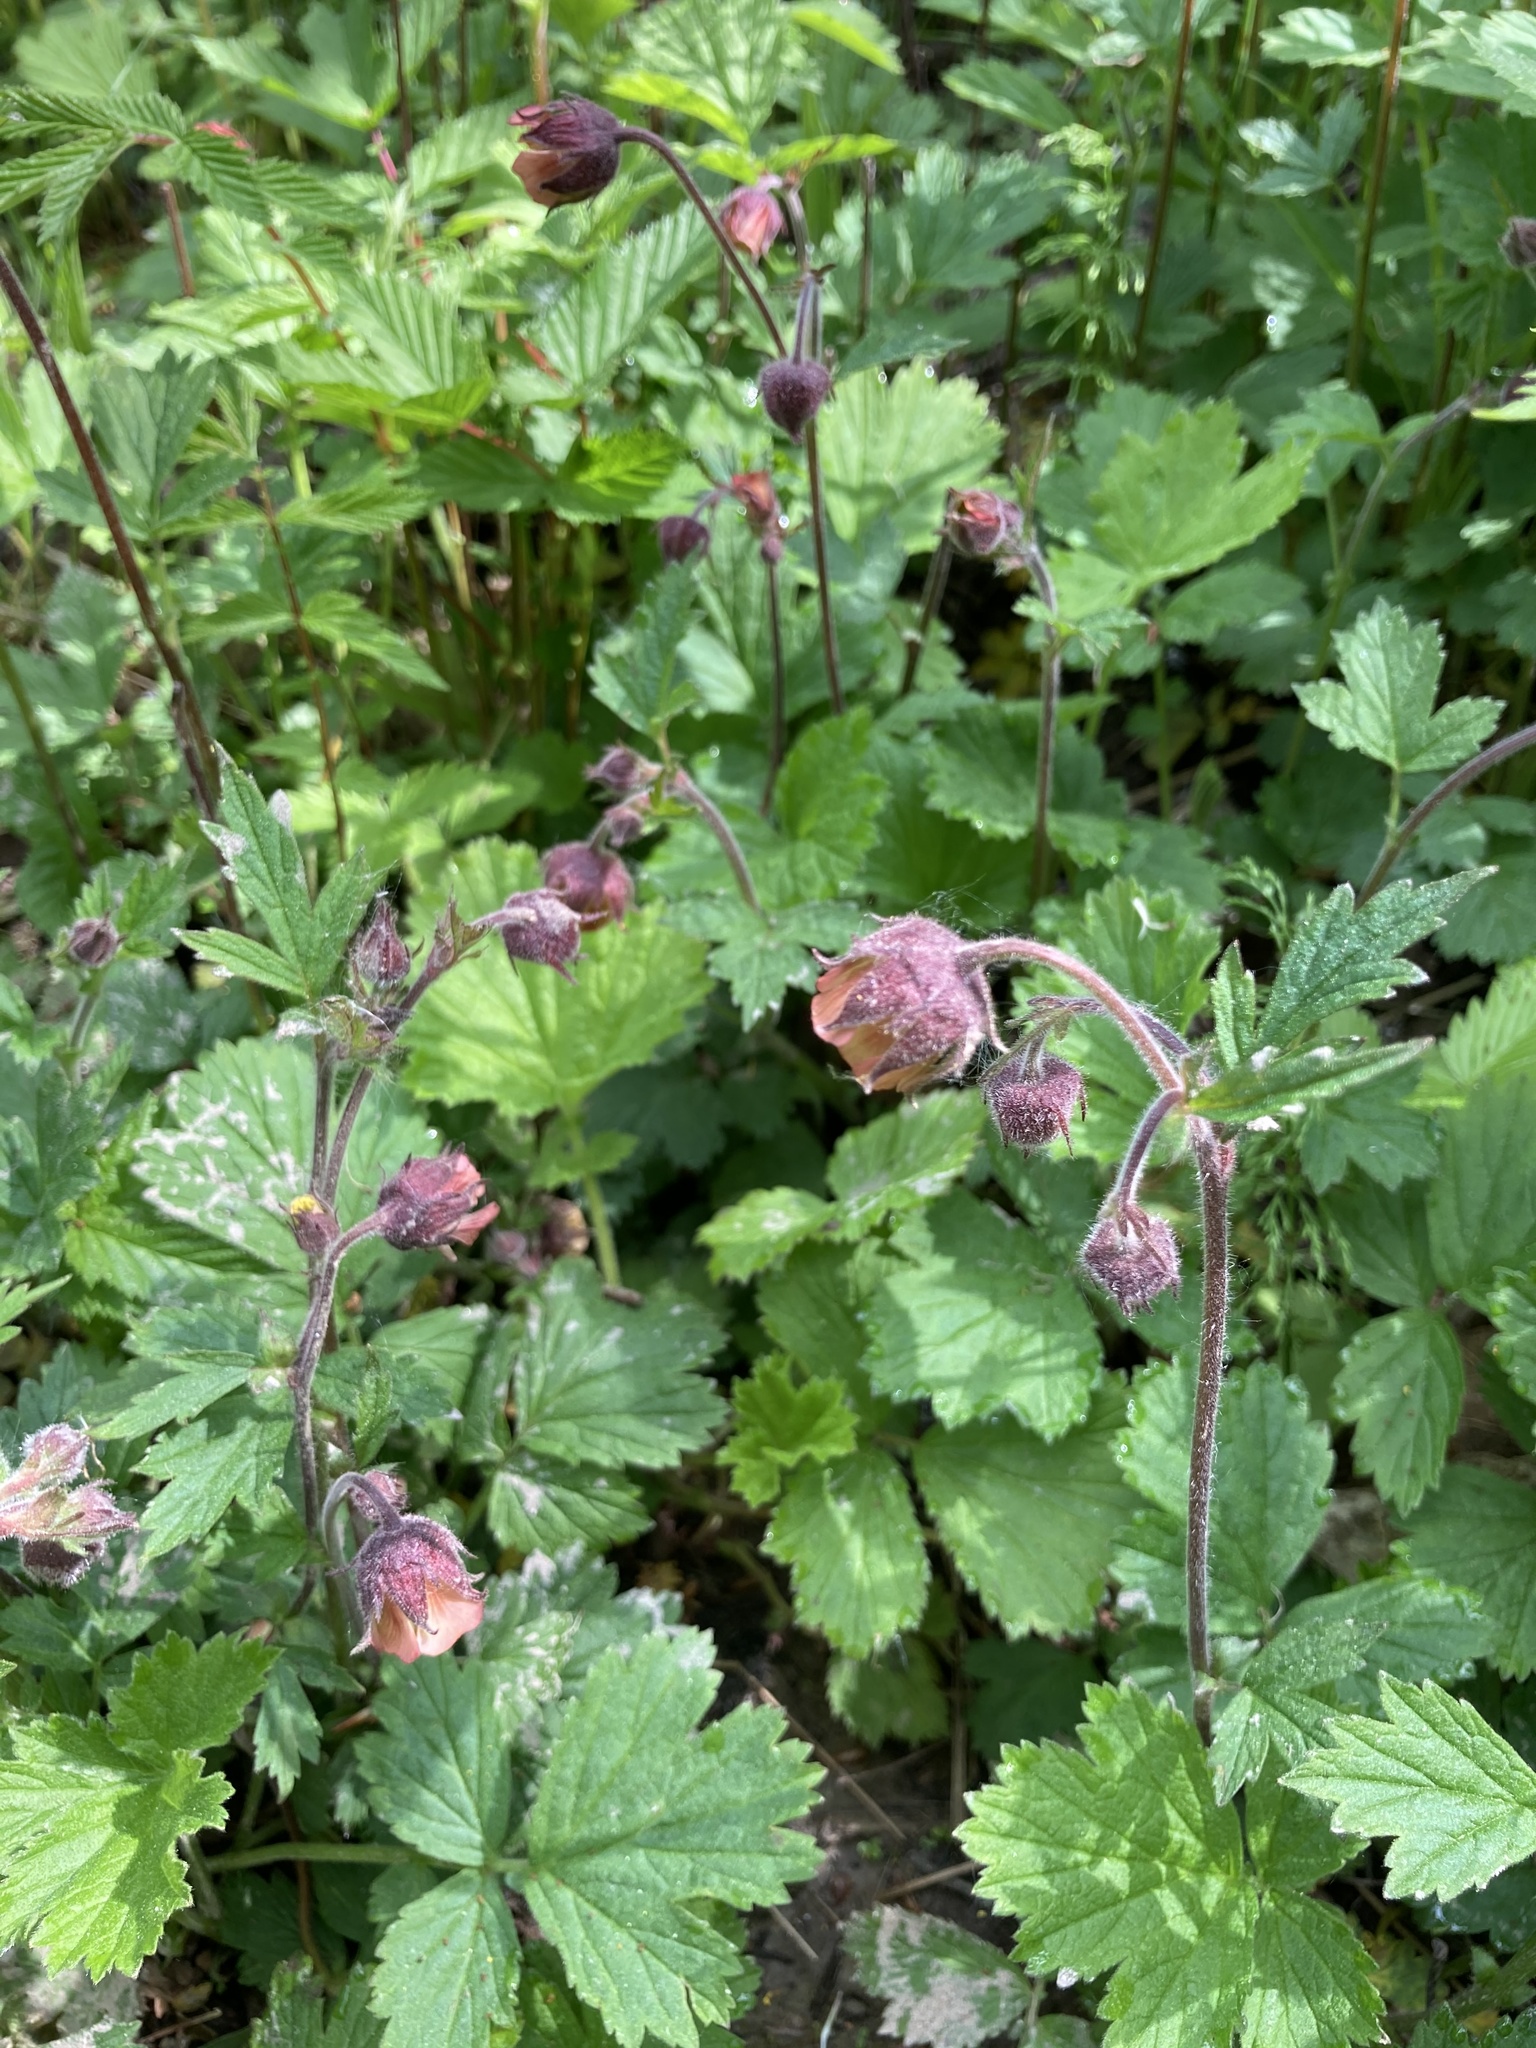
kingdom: Plantae
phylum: Tracheophyta
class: Magnoliopsida
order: Rosales
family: Rosaceae
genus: Geum
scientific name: Geum rivale
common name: Water avens
